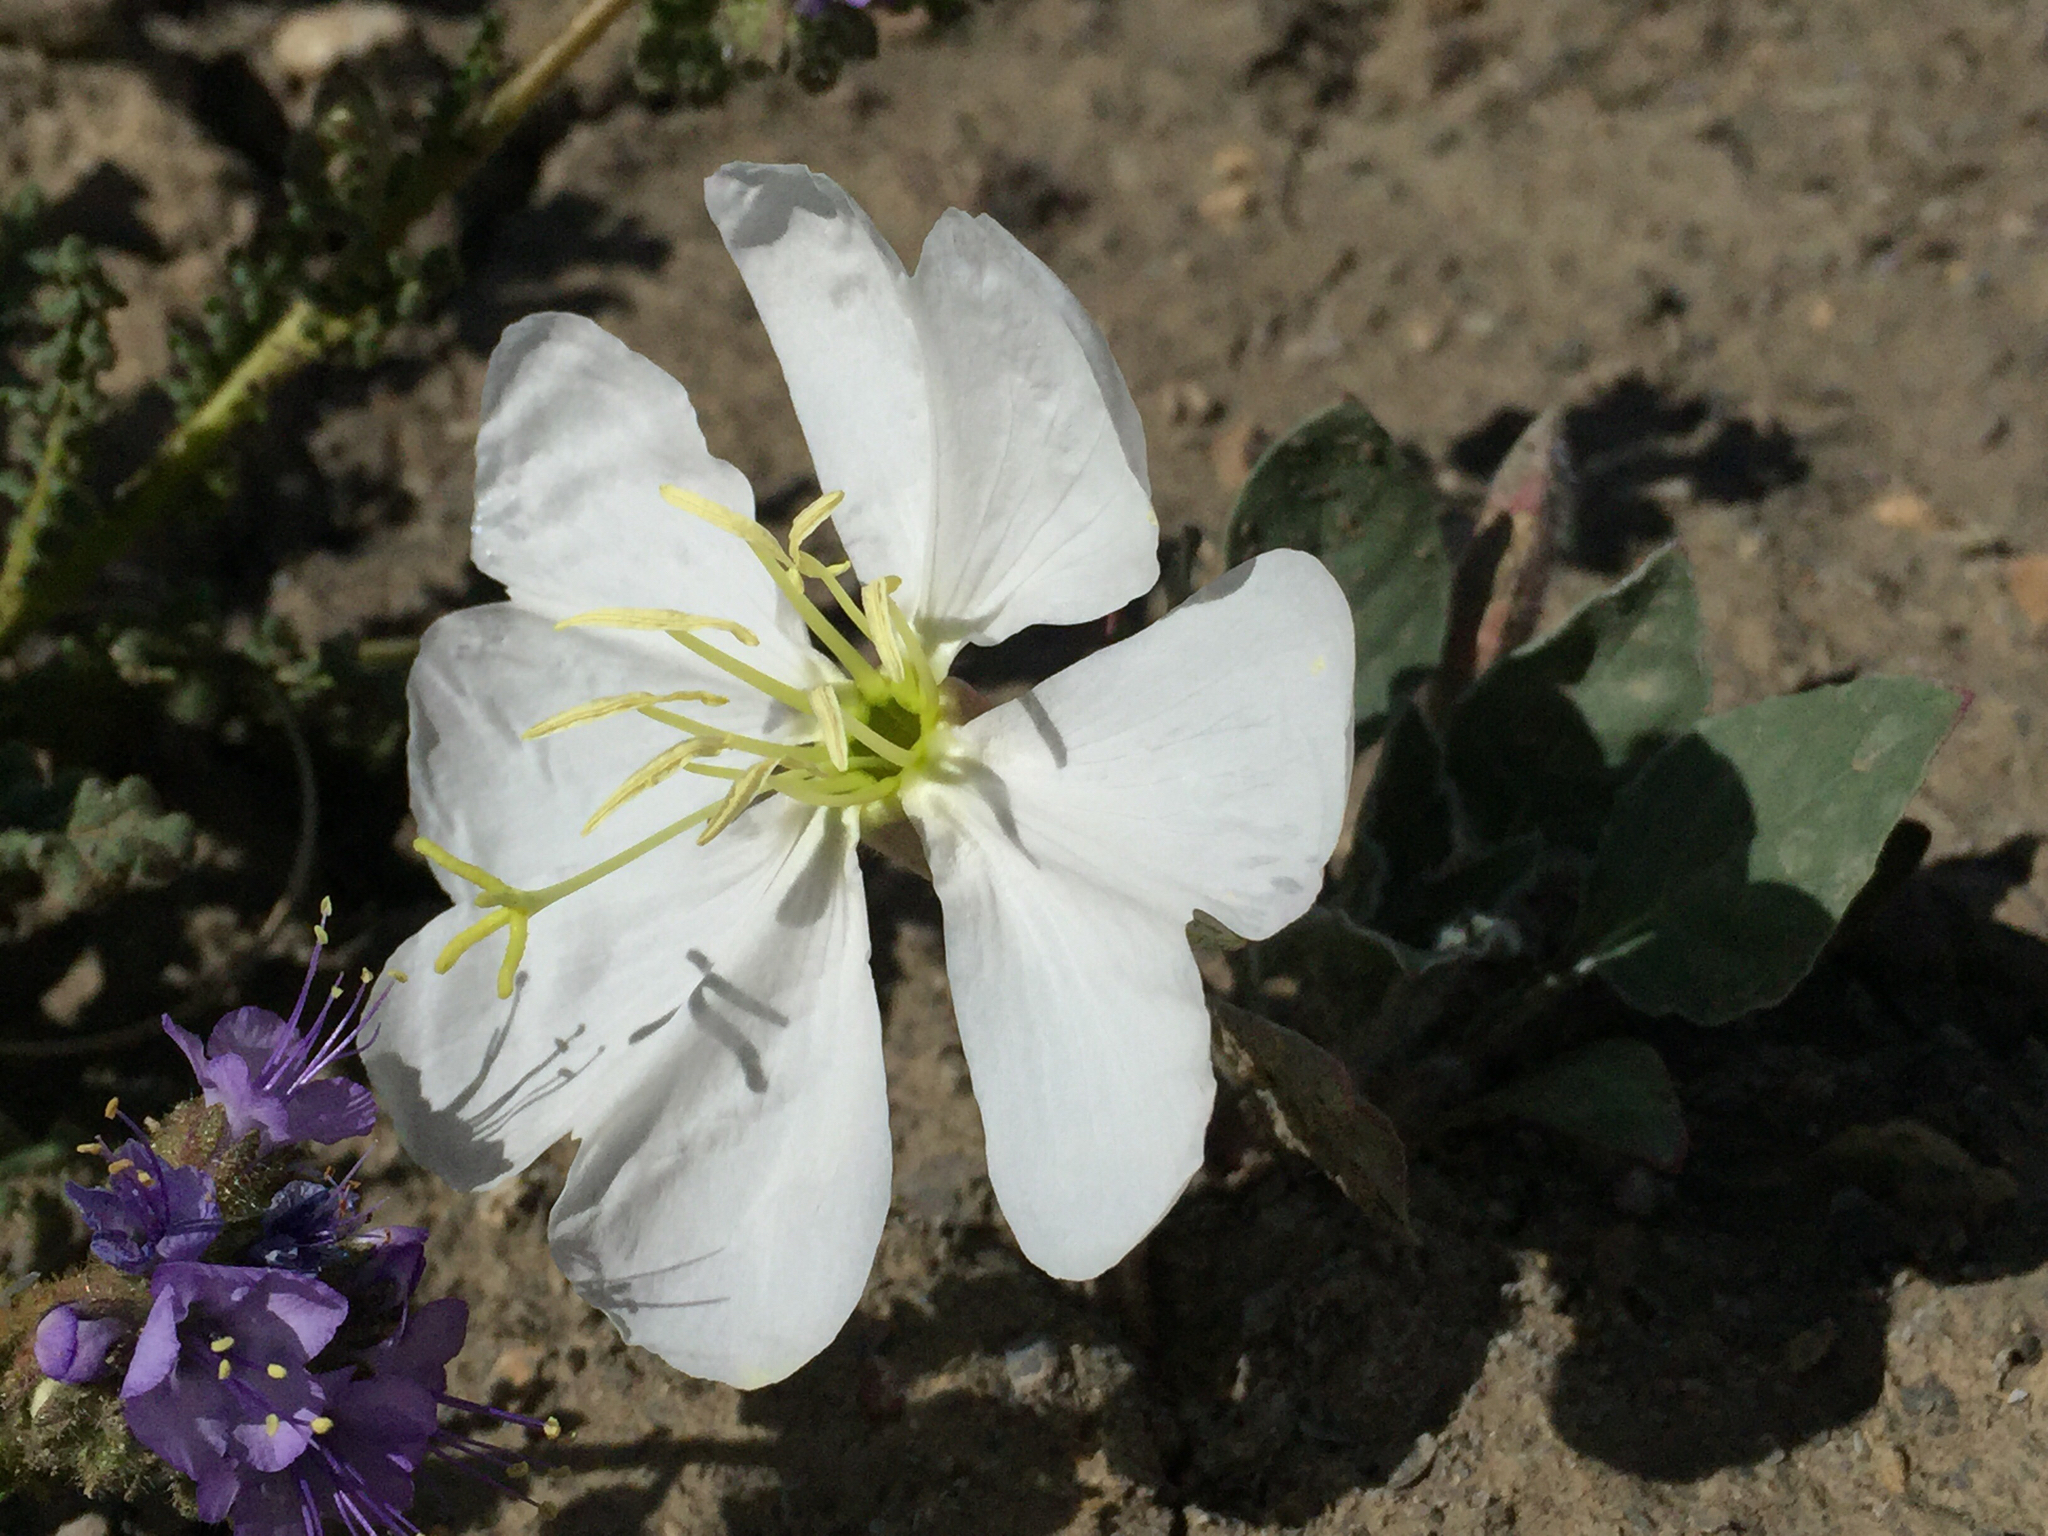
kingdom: Plantae
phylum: Tracheophyta
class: Magnoliopsida
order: Myrtales
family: Onagraceae
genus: Oenothera
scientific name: Oenothera cespitosa
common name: Tufted evening-primrose
